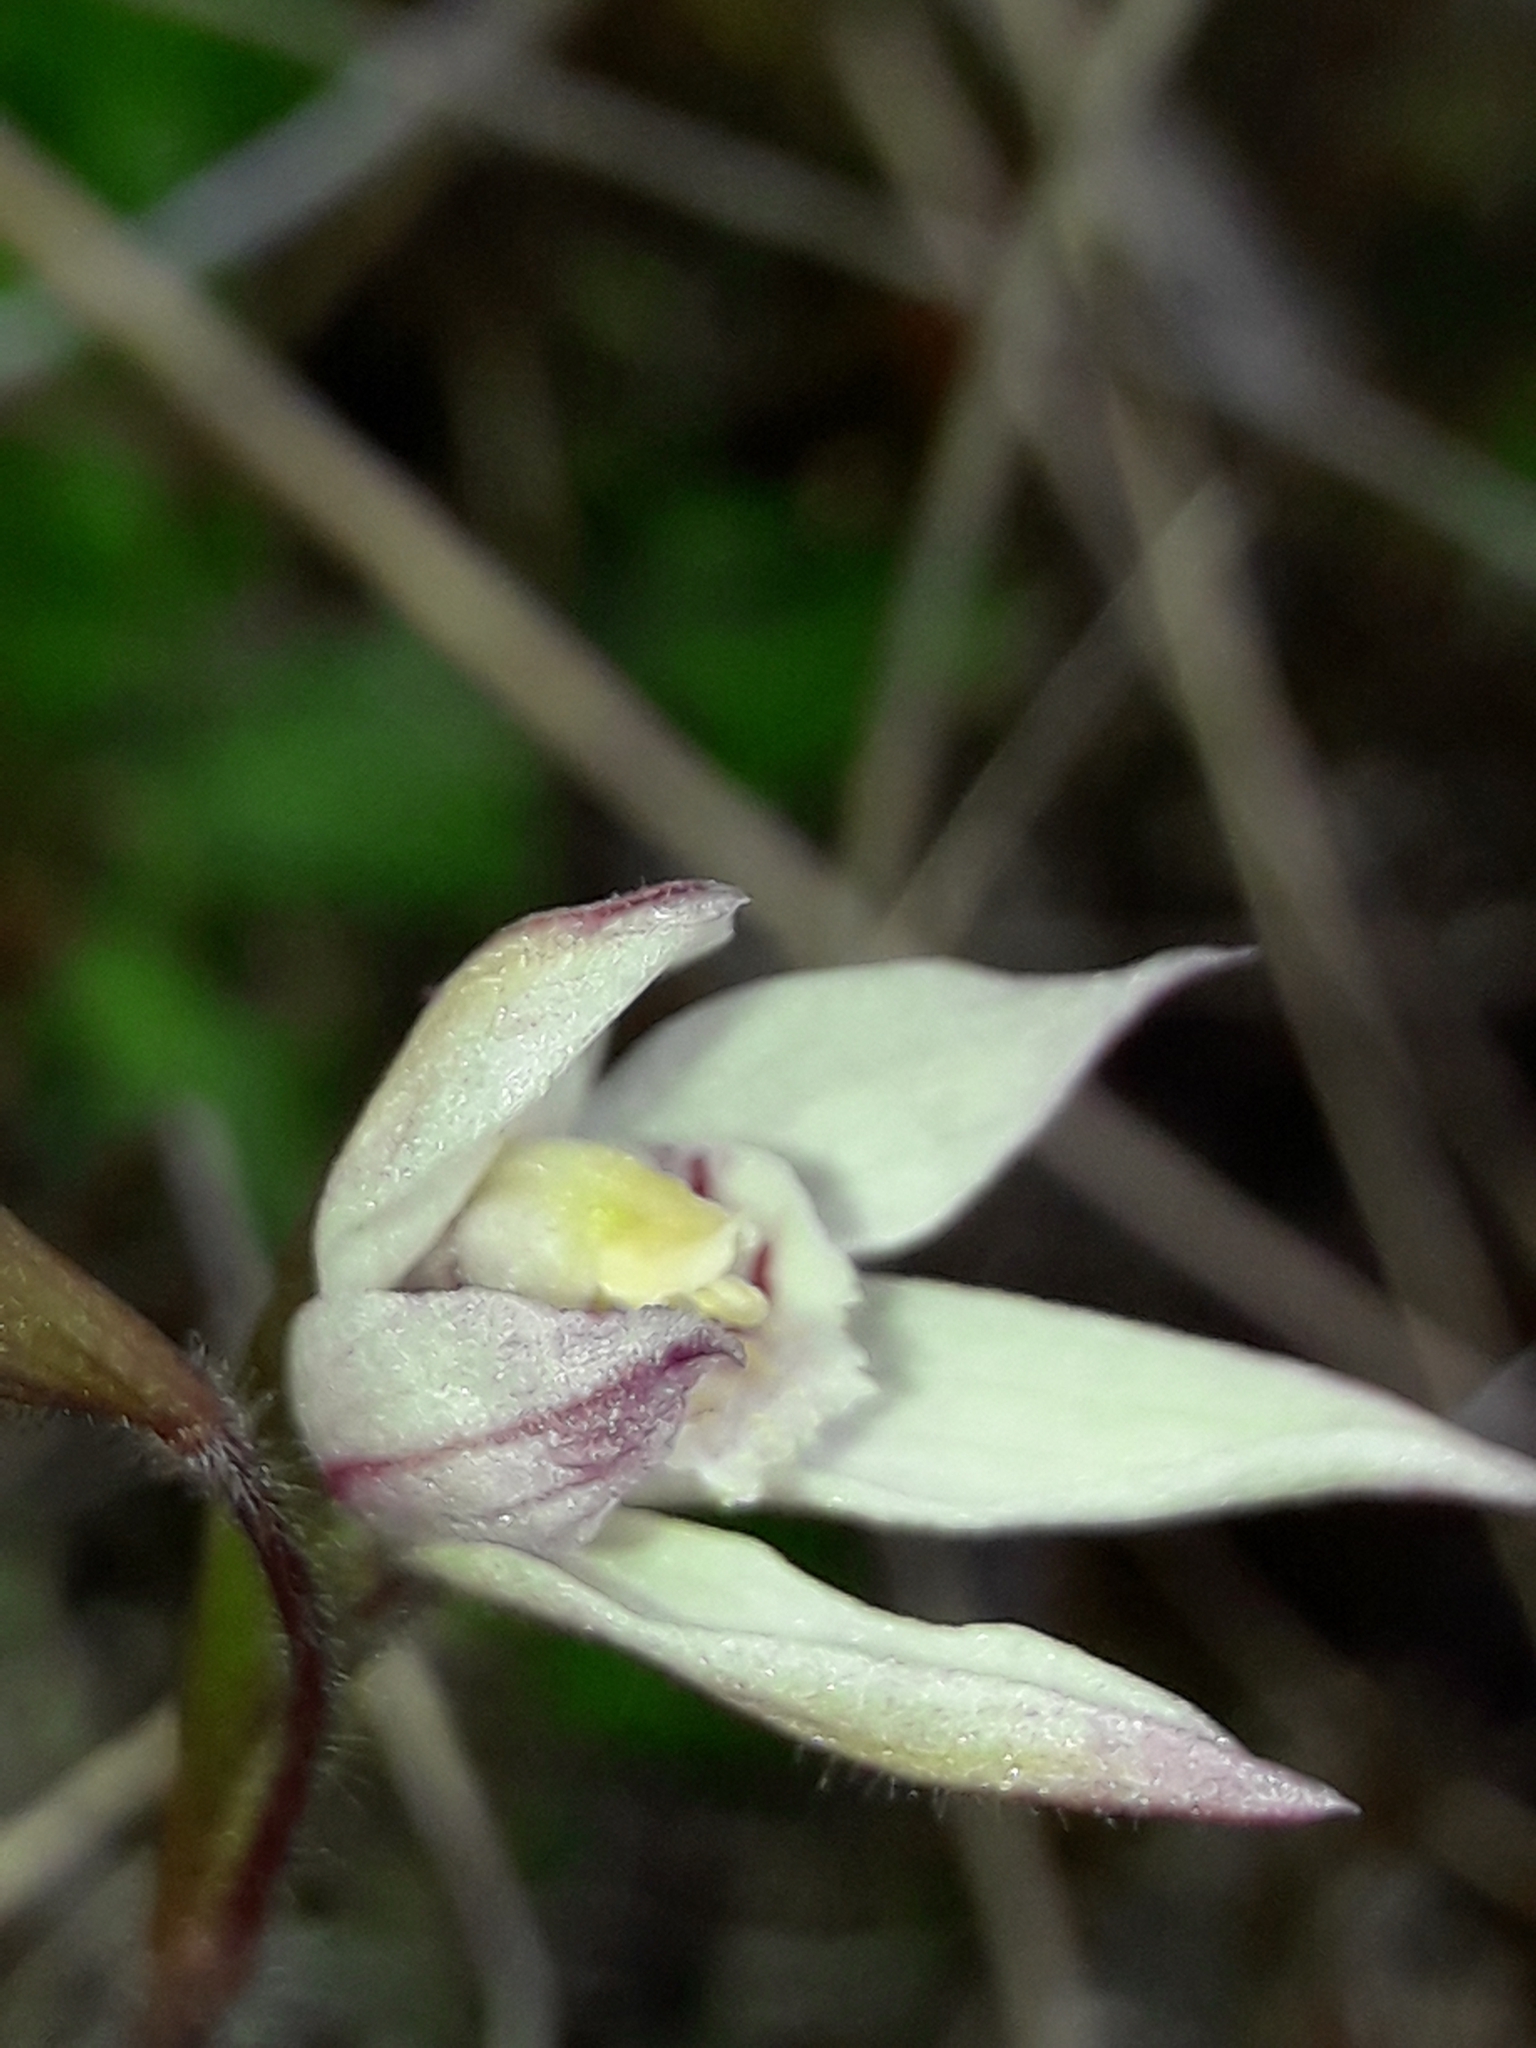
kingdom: Plantae
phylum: Tracheophyta
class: Liliopsida
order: Asparagales
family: Orchidaceae
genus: Caladenia
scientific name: Caladenia lyallii
